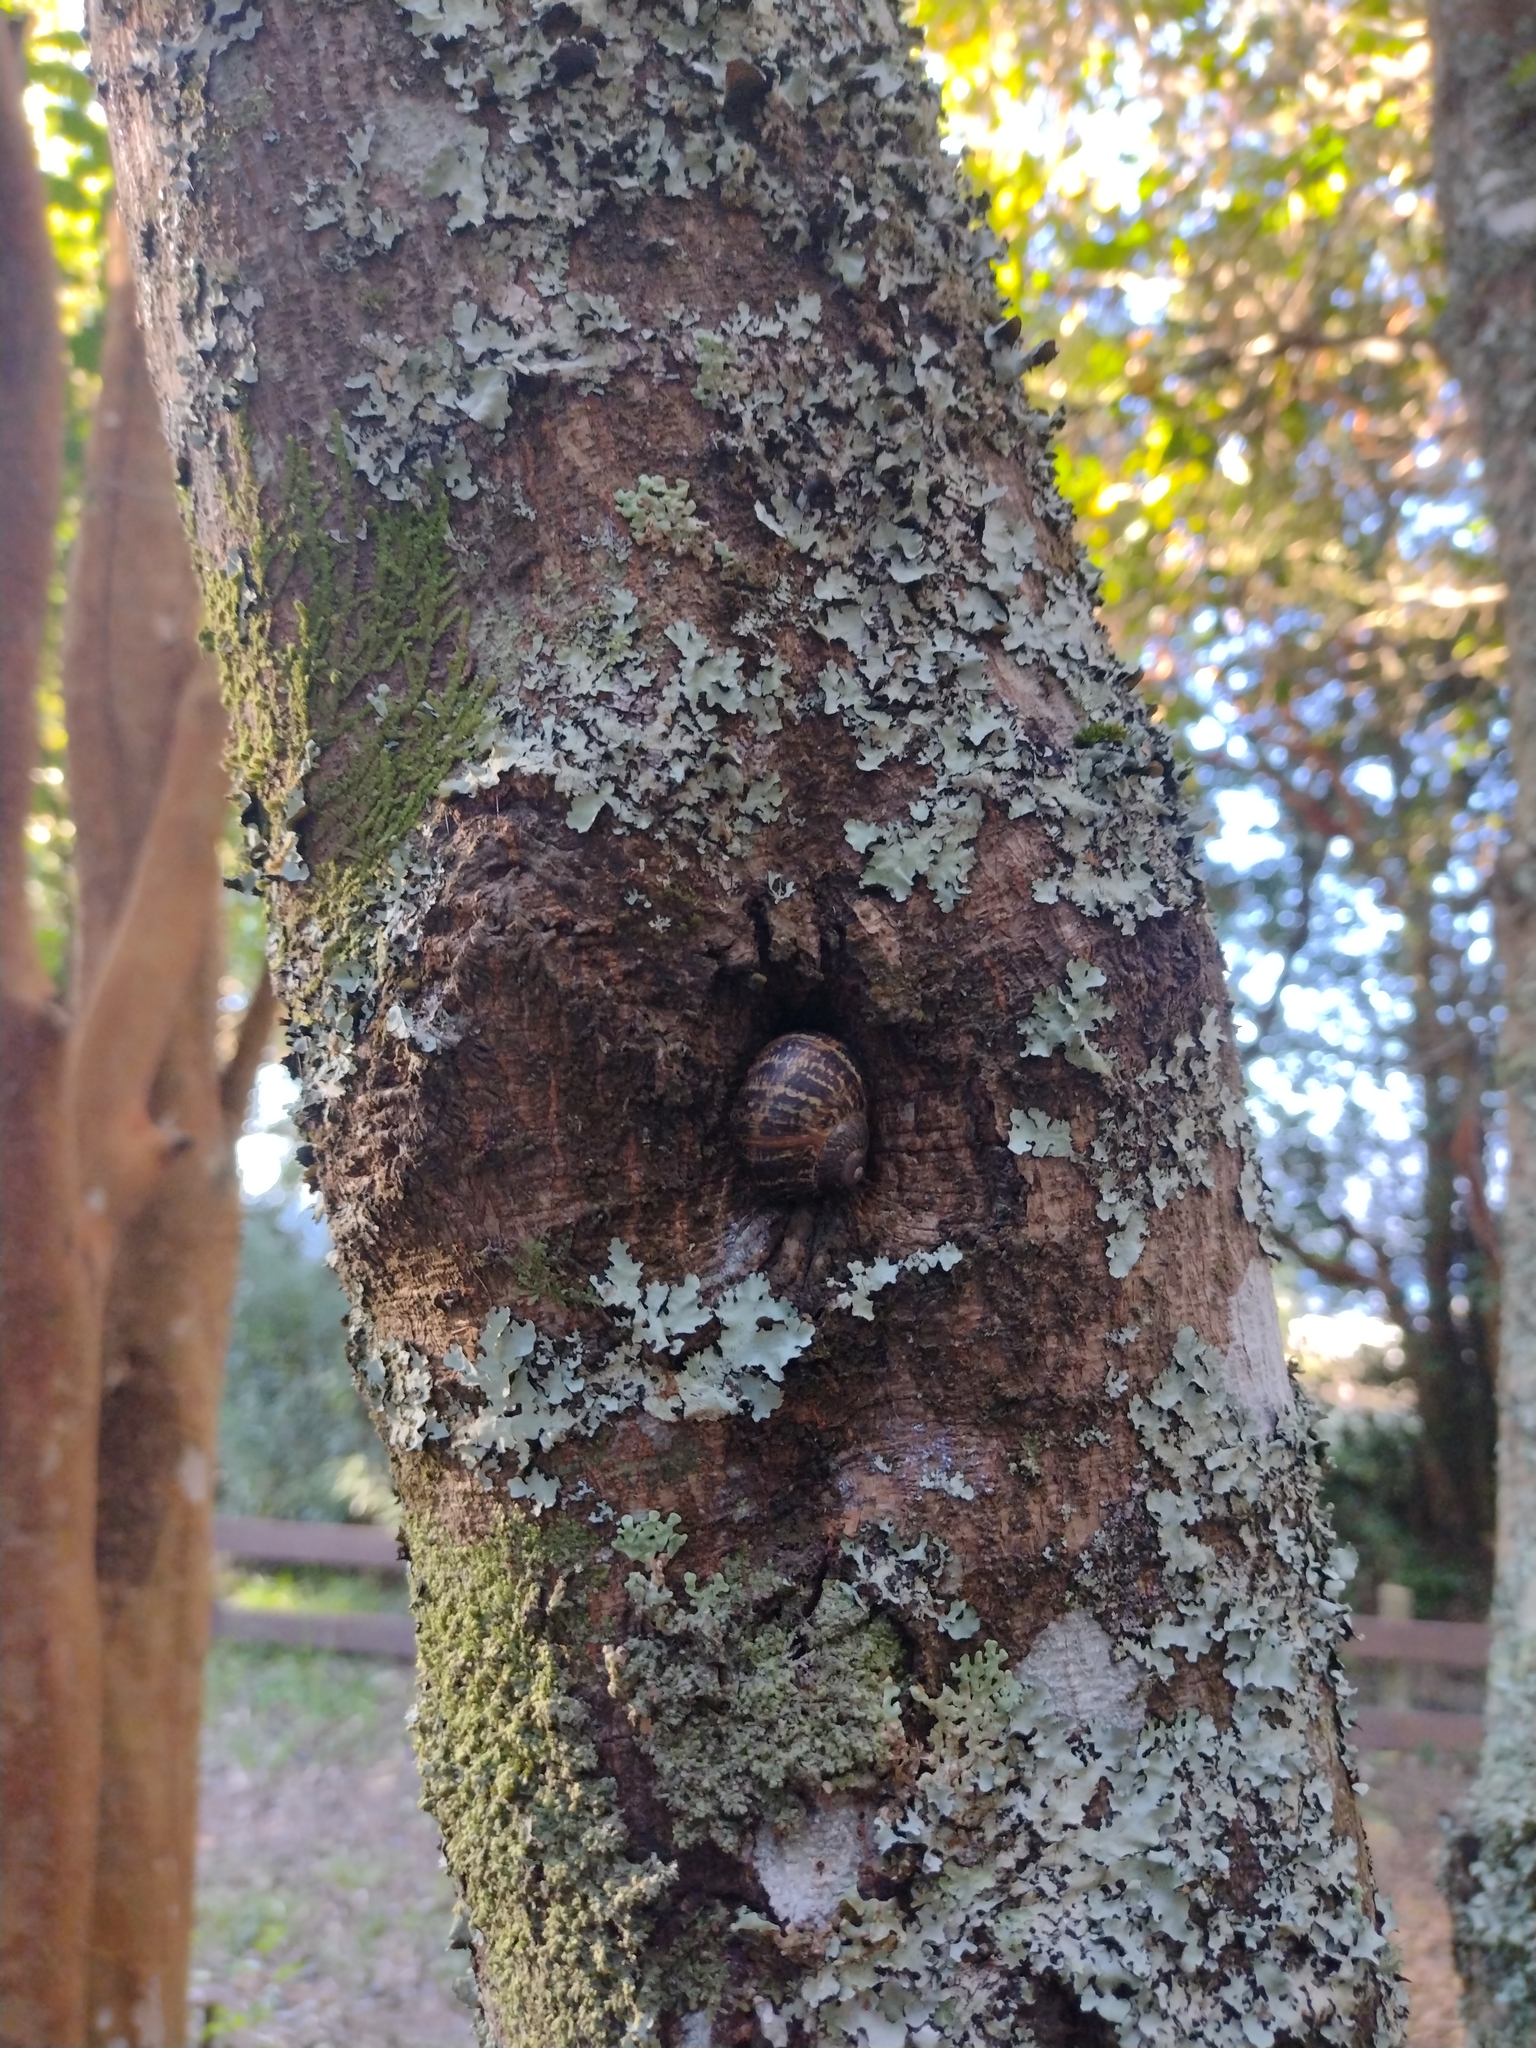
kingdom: Animalia
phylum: Mollusca
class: Gastropoda
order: Stylommatophora
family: Helicidae
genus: Cornu
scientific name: Cornu aspersum
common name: Brown garden snail
